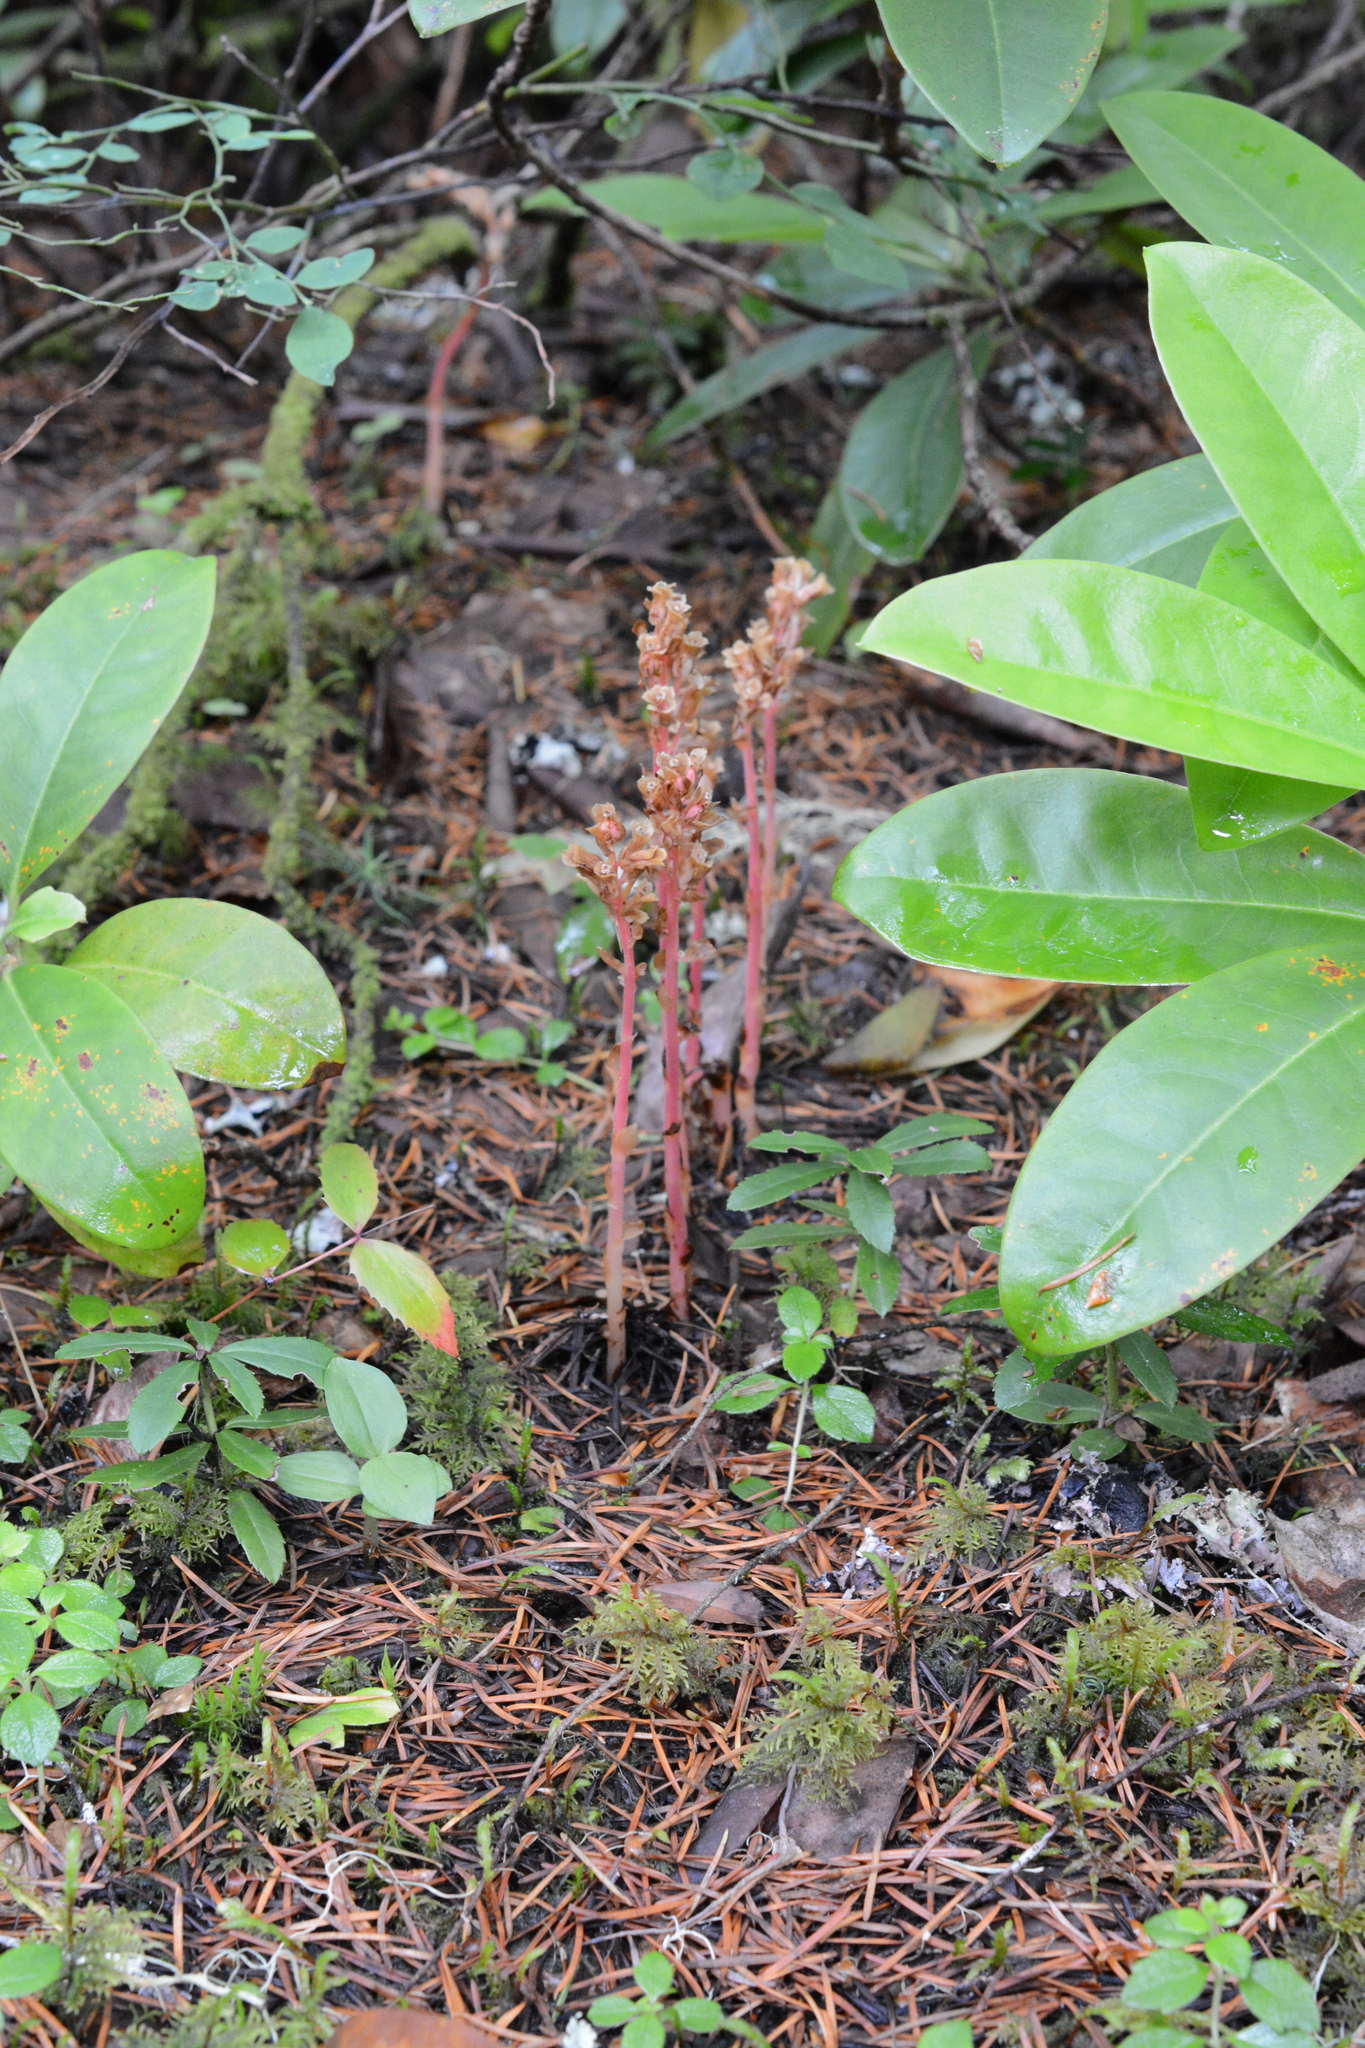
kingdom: Plantae
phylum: Tracheophyta
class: Magnoliopsida
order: Ericales
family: Ericaceae
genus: Hypopitys
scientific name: Hypopitys monotropa
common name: Yellow bird's-nest
